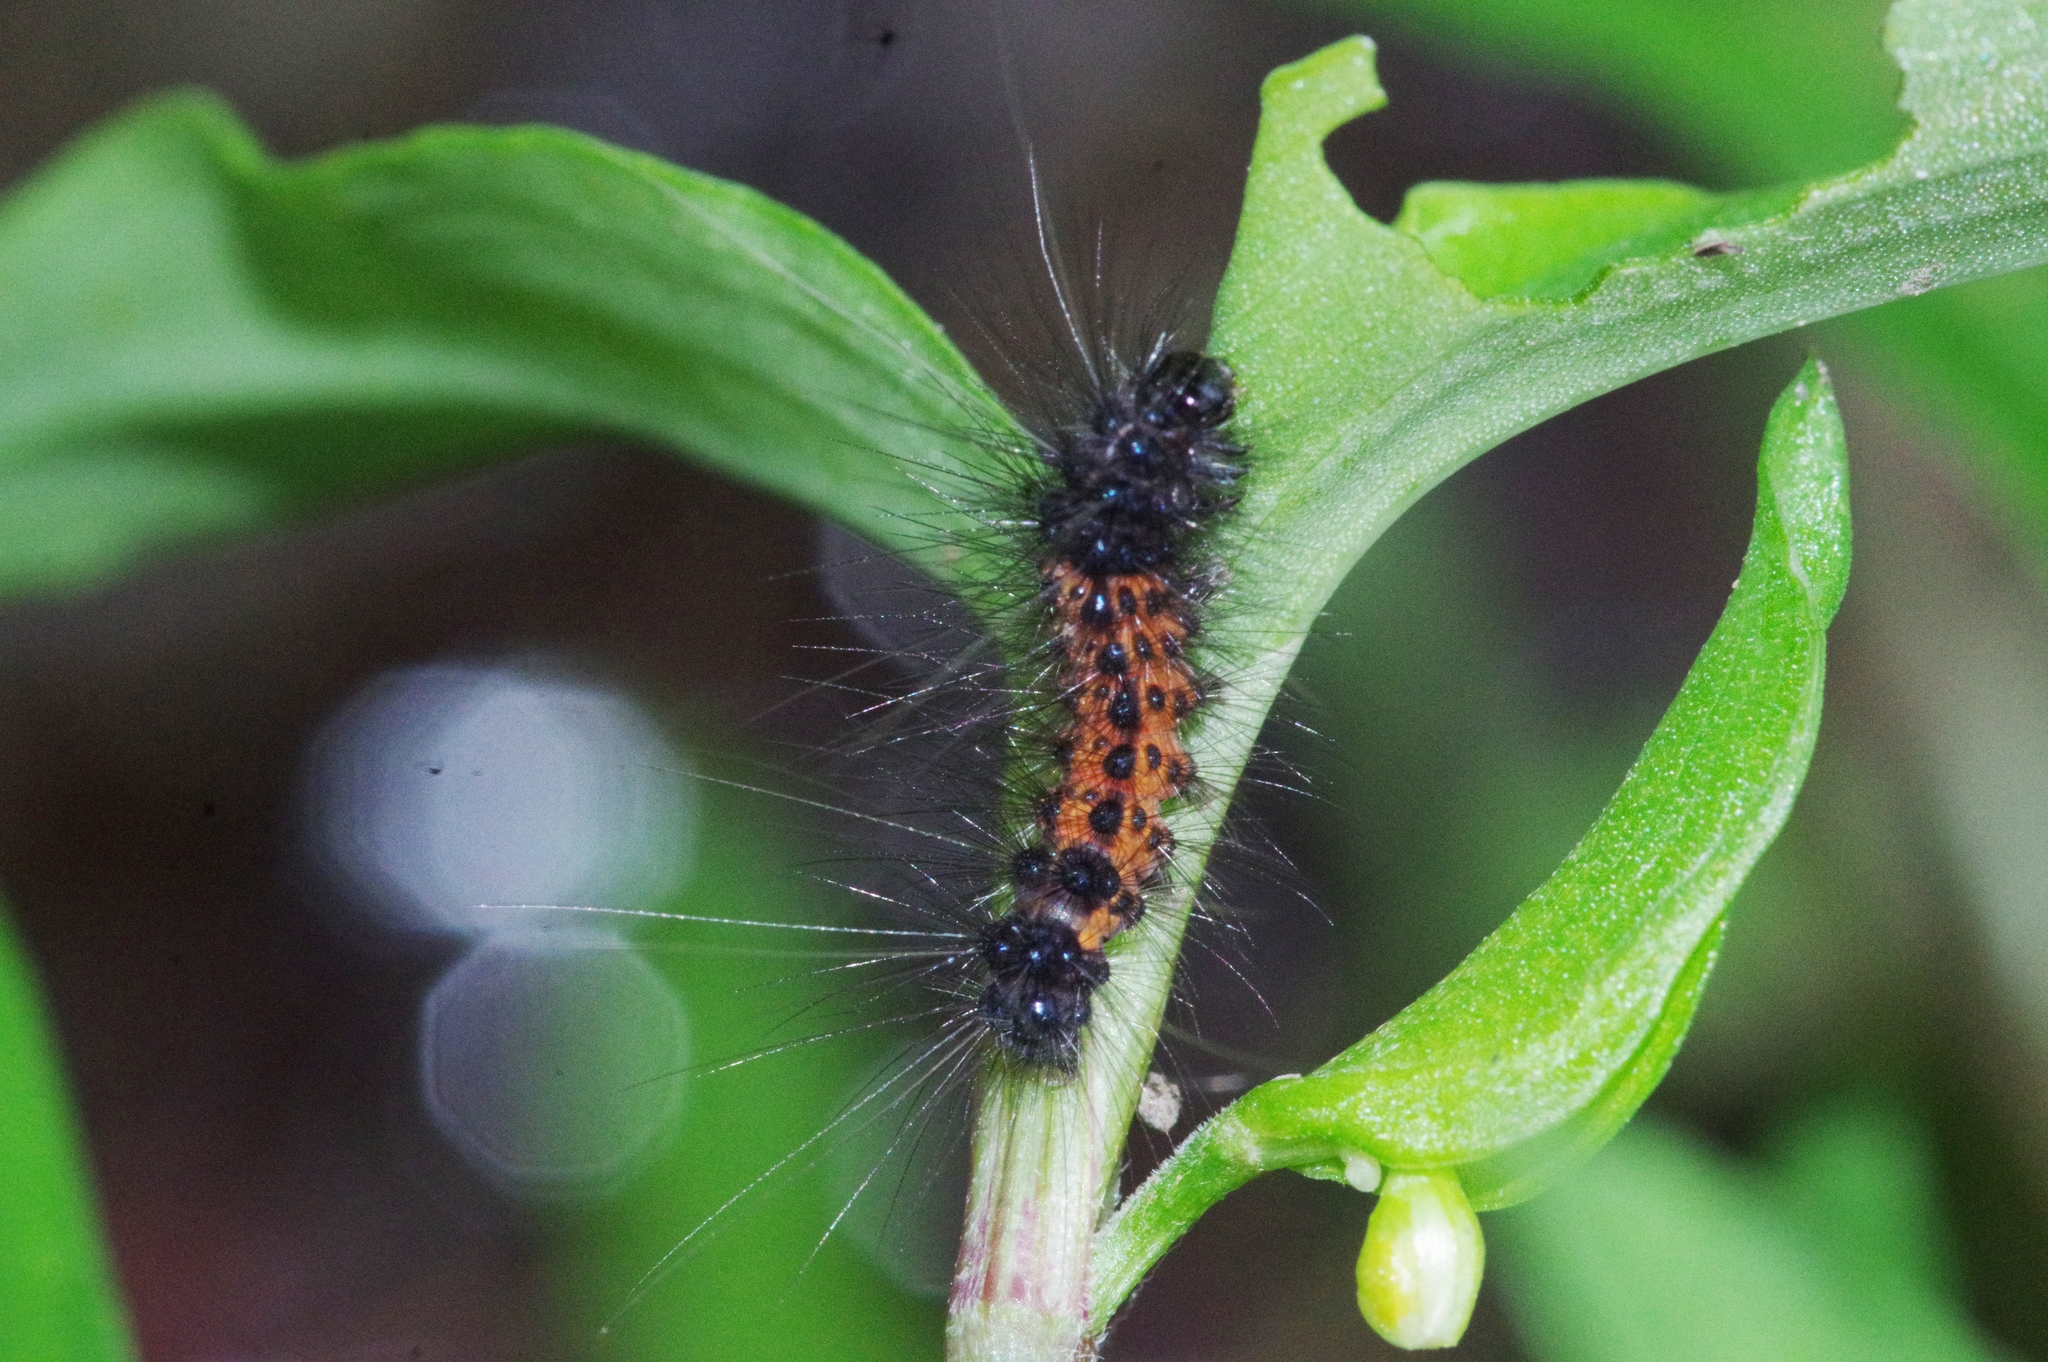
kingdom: Animalia
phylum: Arthropoda
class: Insecta
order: Lepidoptera
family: Erebidae
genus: Spilarctia
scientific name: Spilarctia bifasciata
